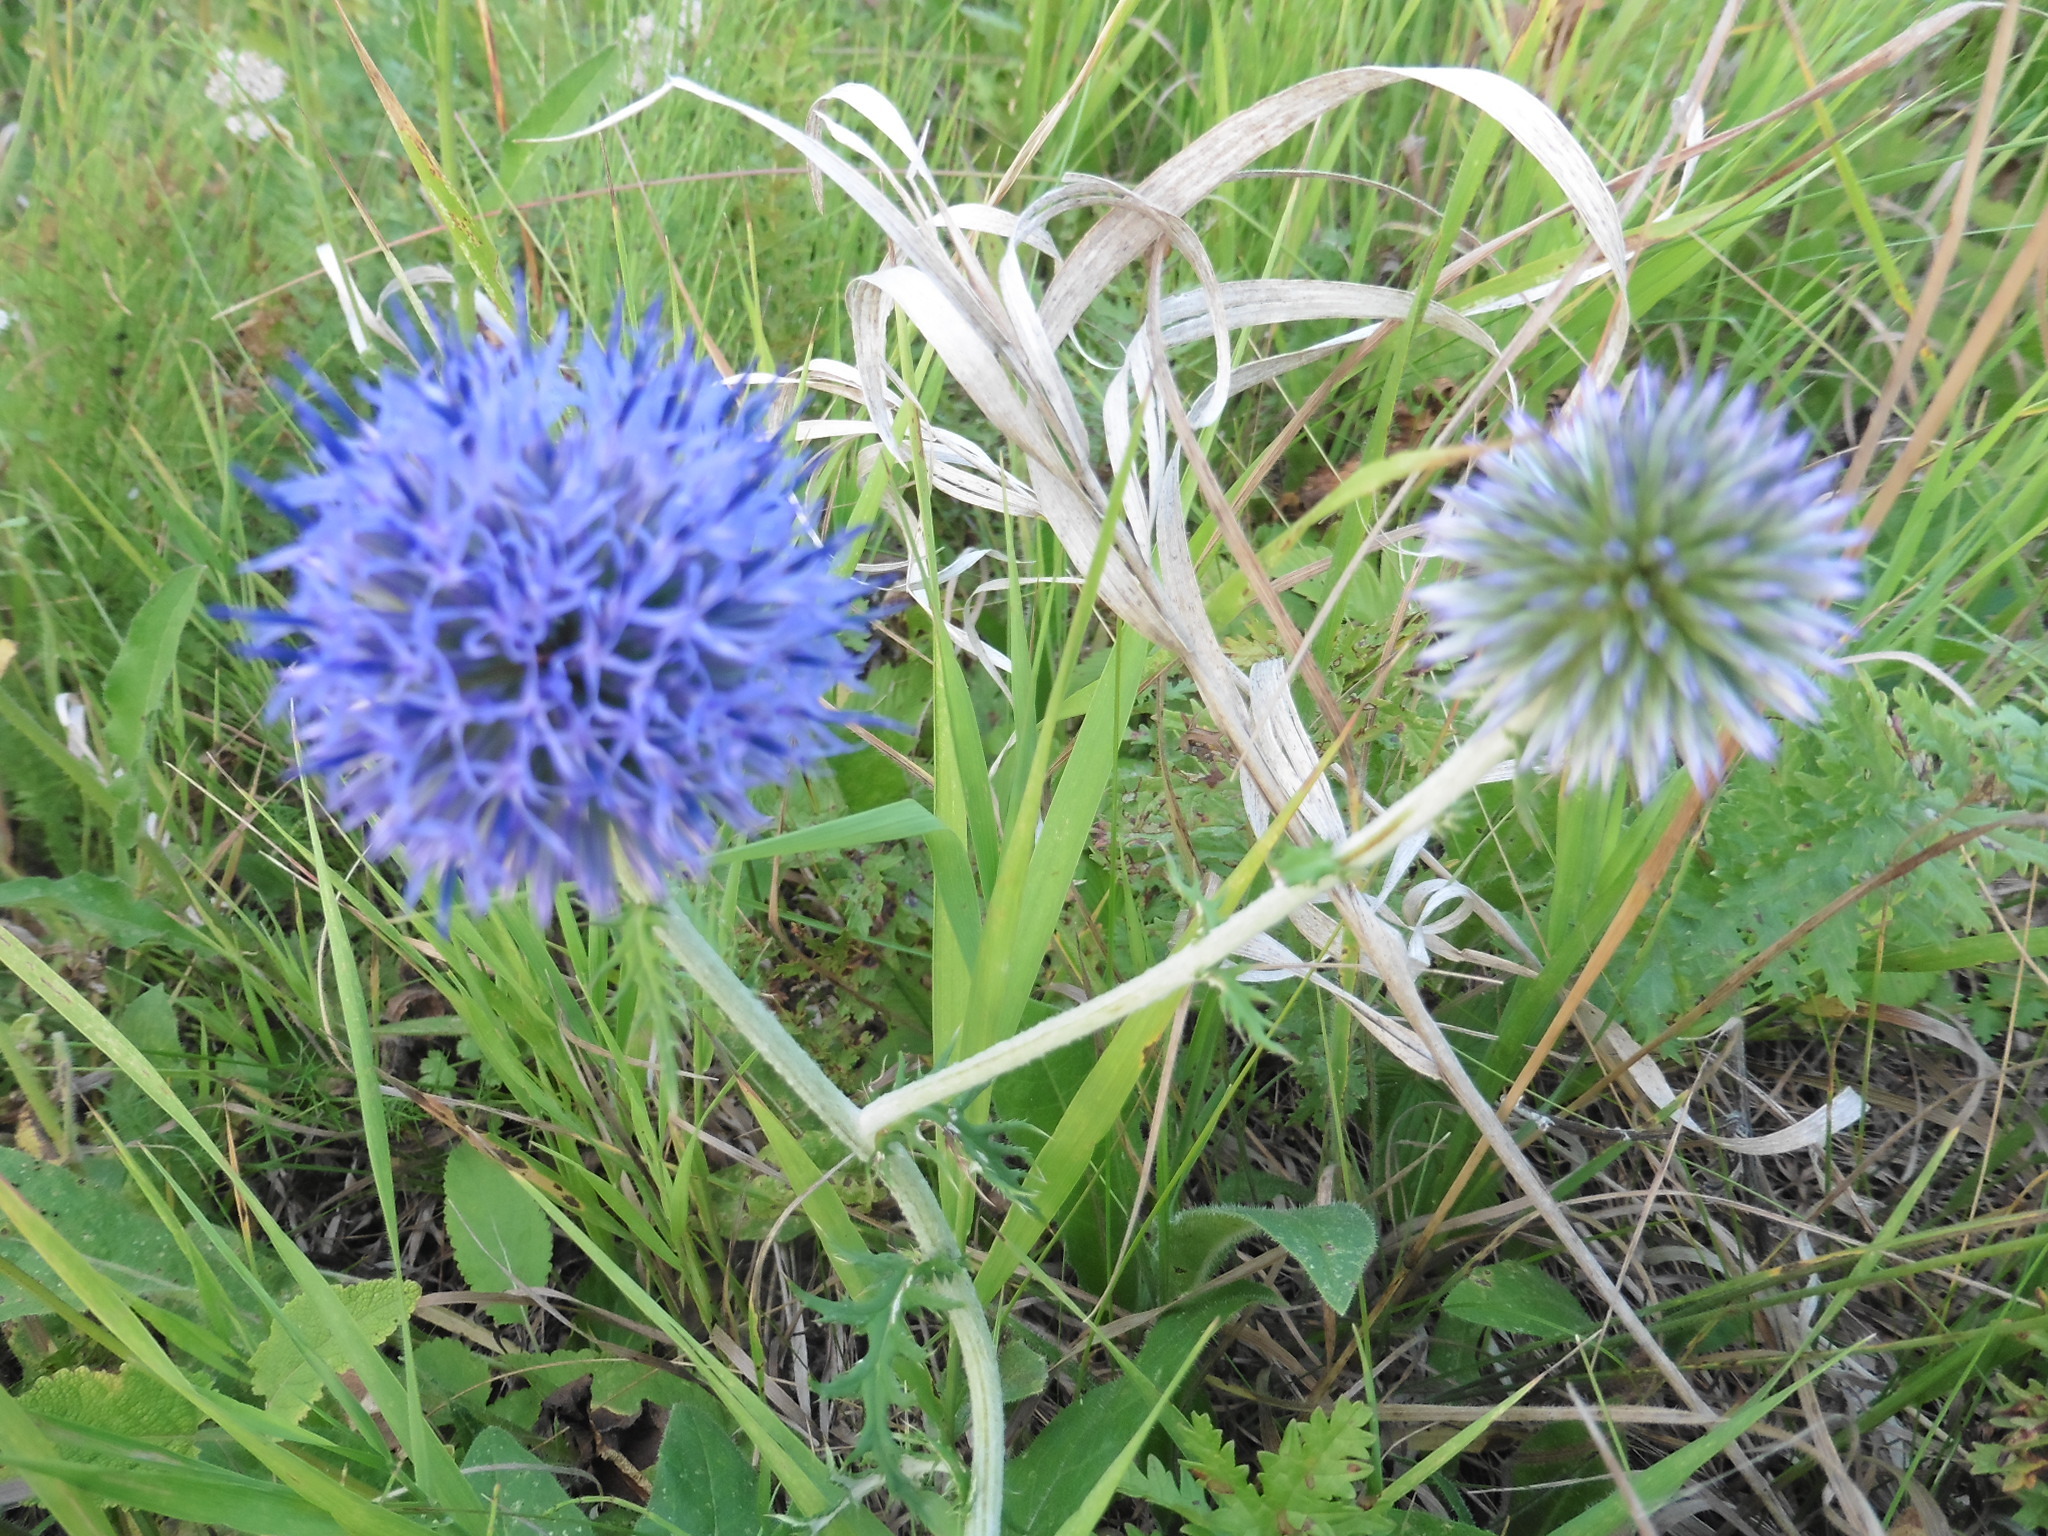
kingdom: Plantae
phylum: Tracheophyta
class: Magnoliopsida
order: Asterales
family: Asteraceae
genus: Echinops
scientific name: Echinops ritro
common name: Globe thistle
